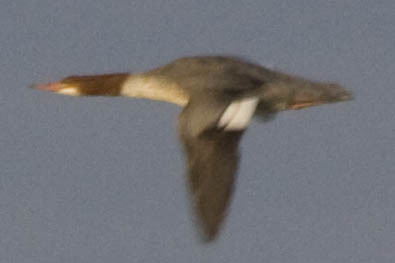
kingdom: Animalia
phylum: Chordata
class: Aves
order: Anseriformes
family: Anatidae
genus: Mergus
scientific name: Mergus merganser
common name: Common merganser
